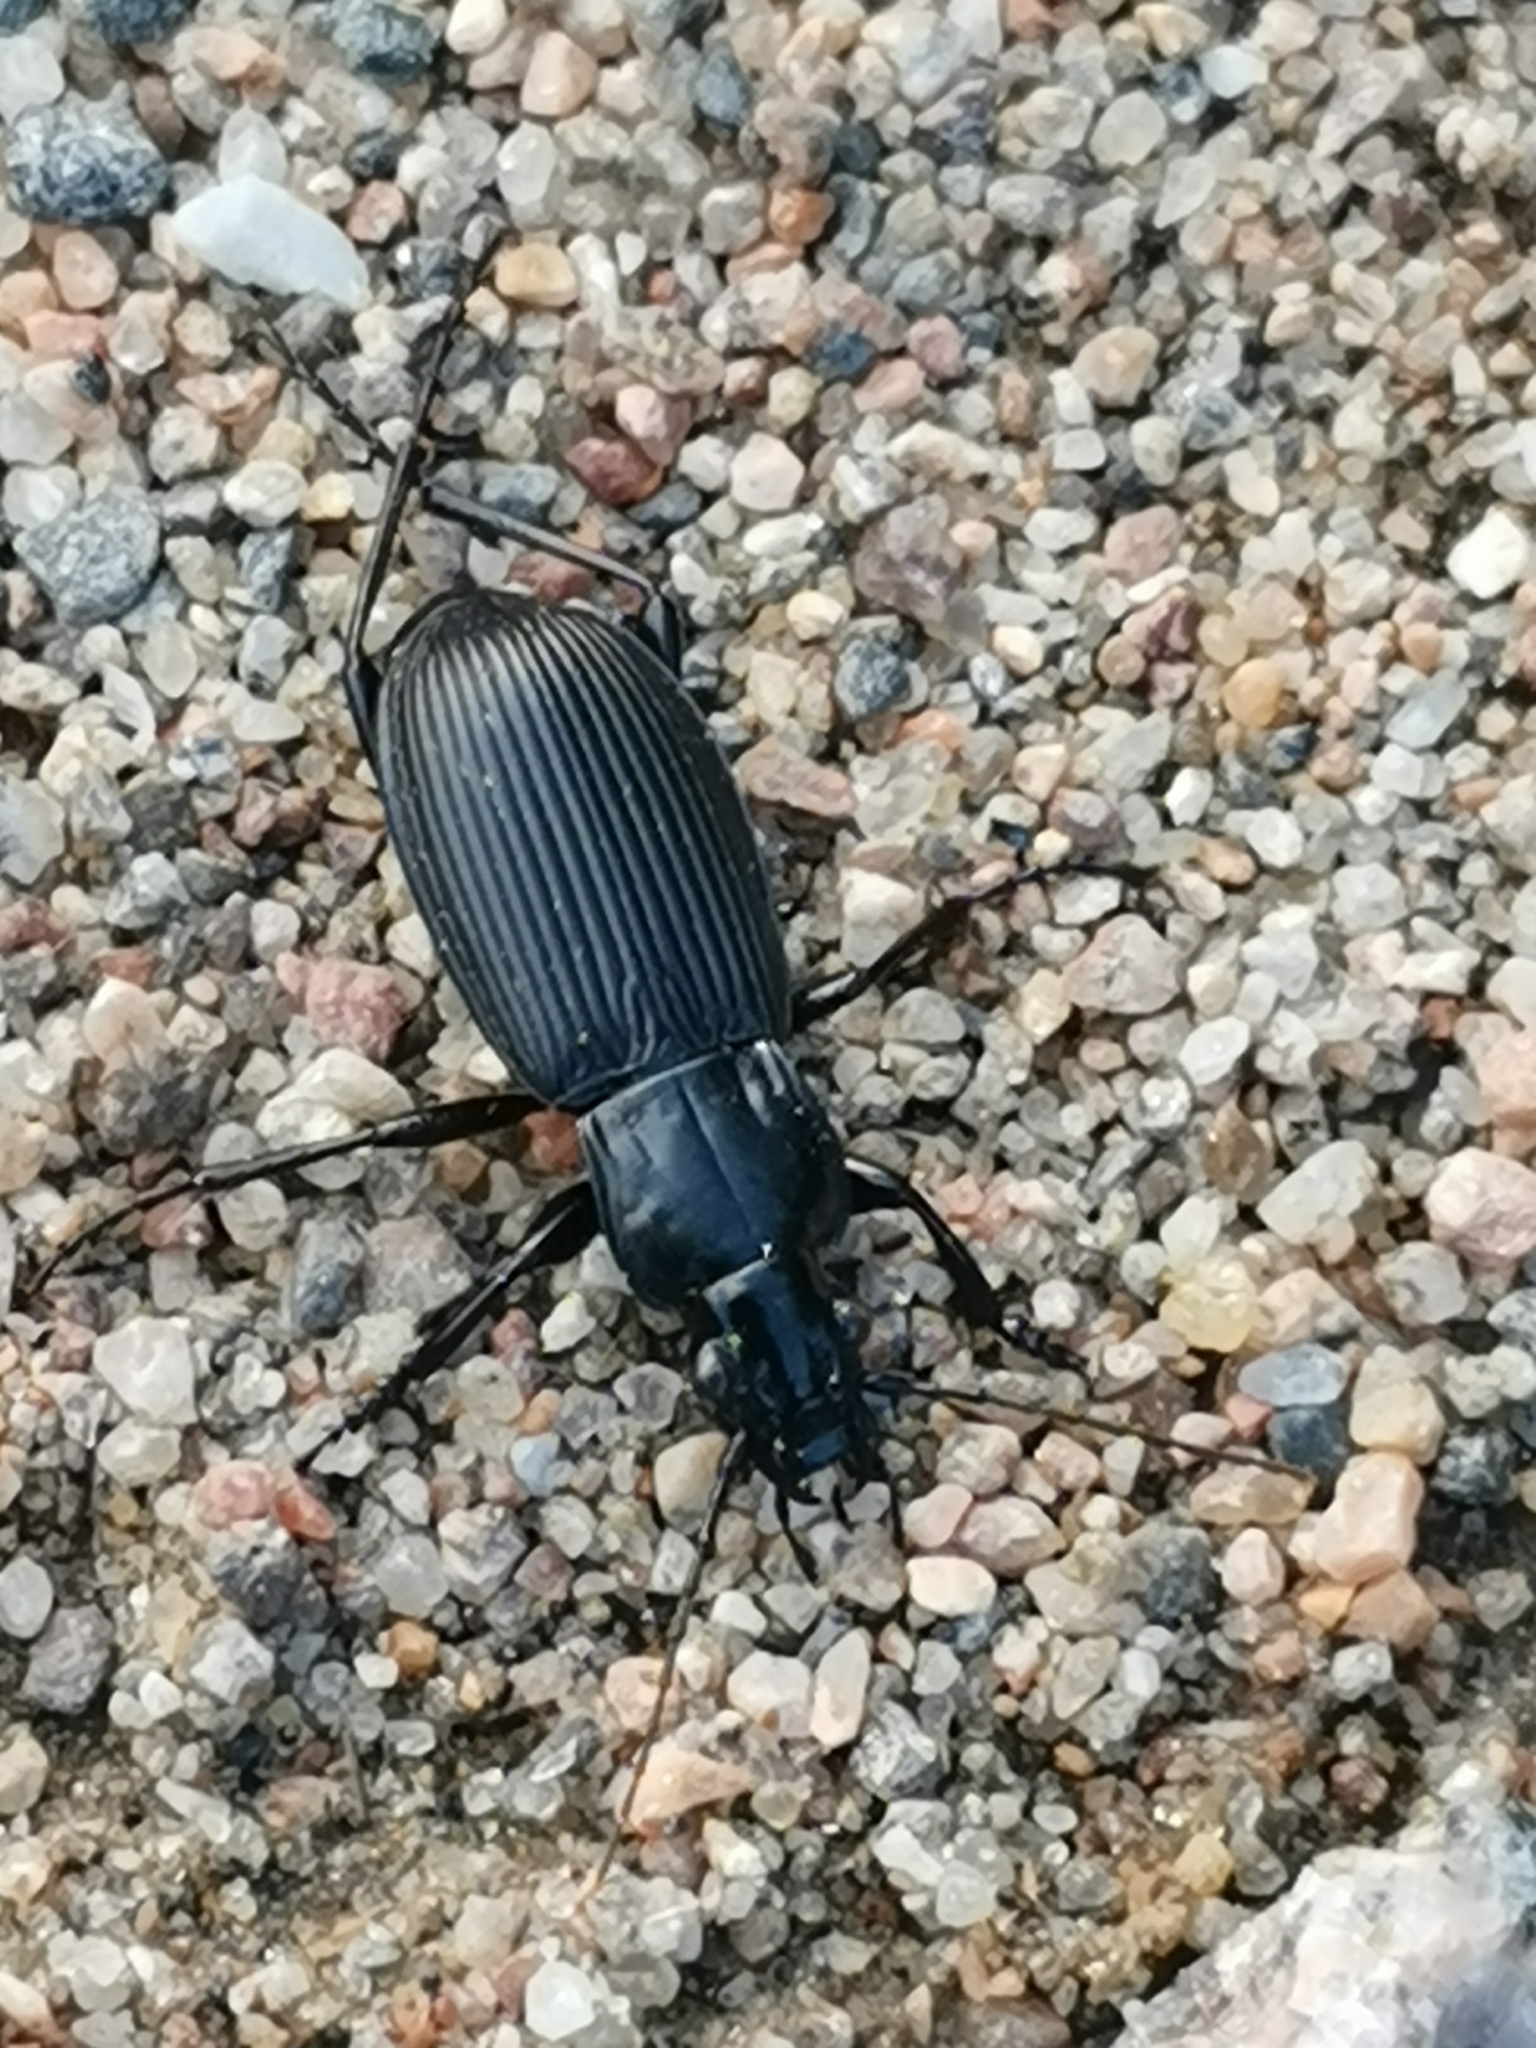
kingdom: Animalia
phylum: Arthropoda
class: Insecta
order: Coleoptera
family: Carabidae
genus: Pterostichus
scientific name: Pterostichus niger
